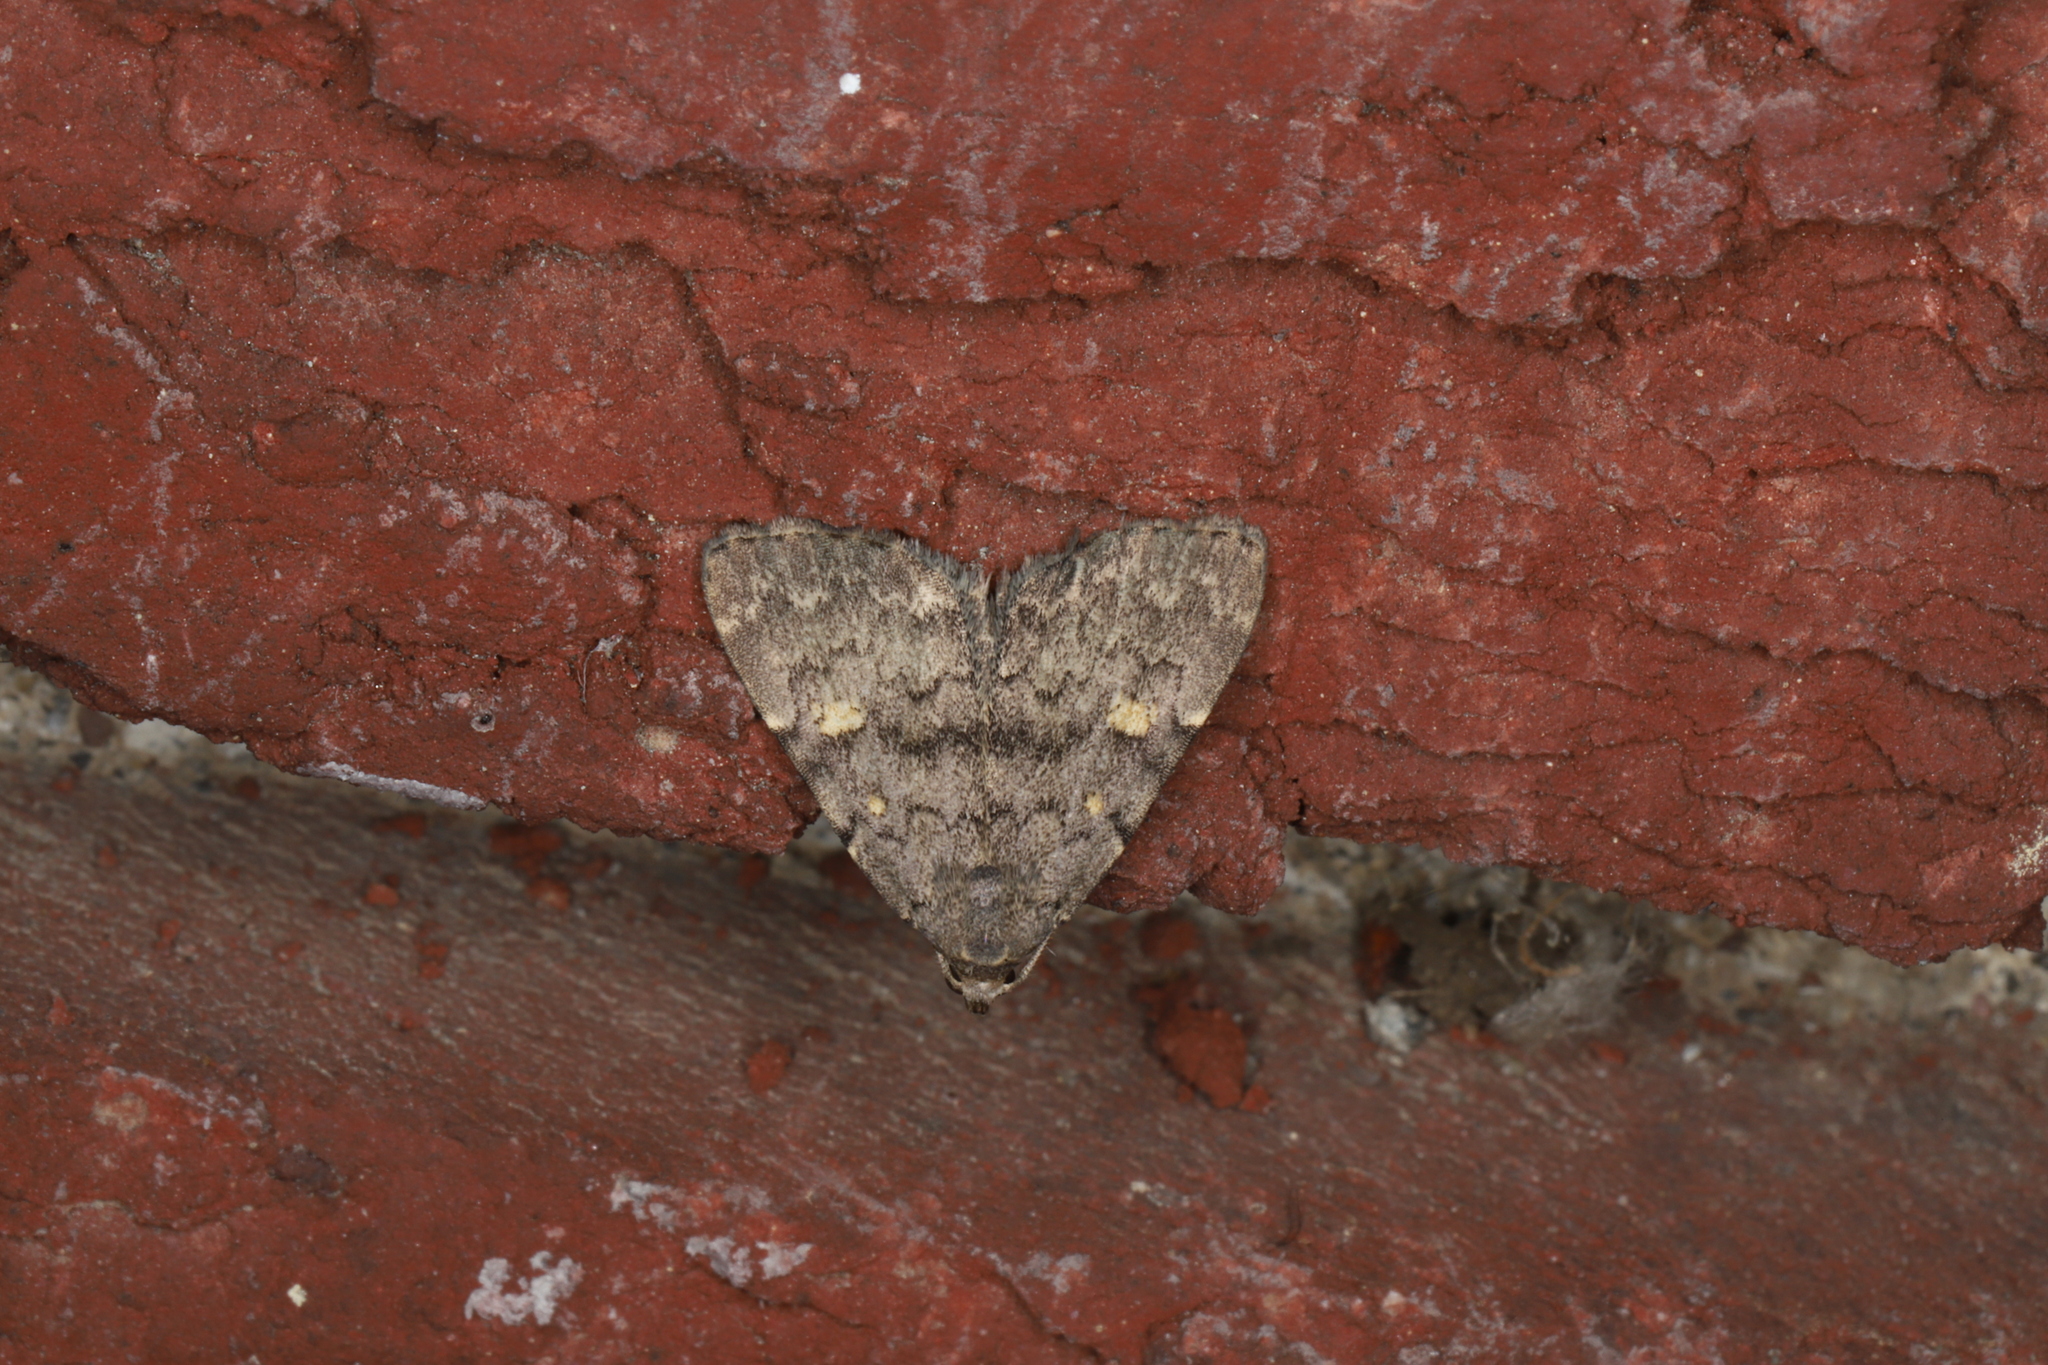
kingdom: Animalia
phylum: Arthropoda
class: Insecta
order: Lepidoptera
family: Erebidae
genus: Idia
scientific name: Idia aemula
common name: Common idia moth
